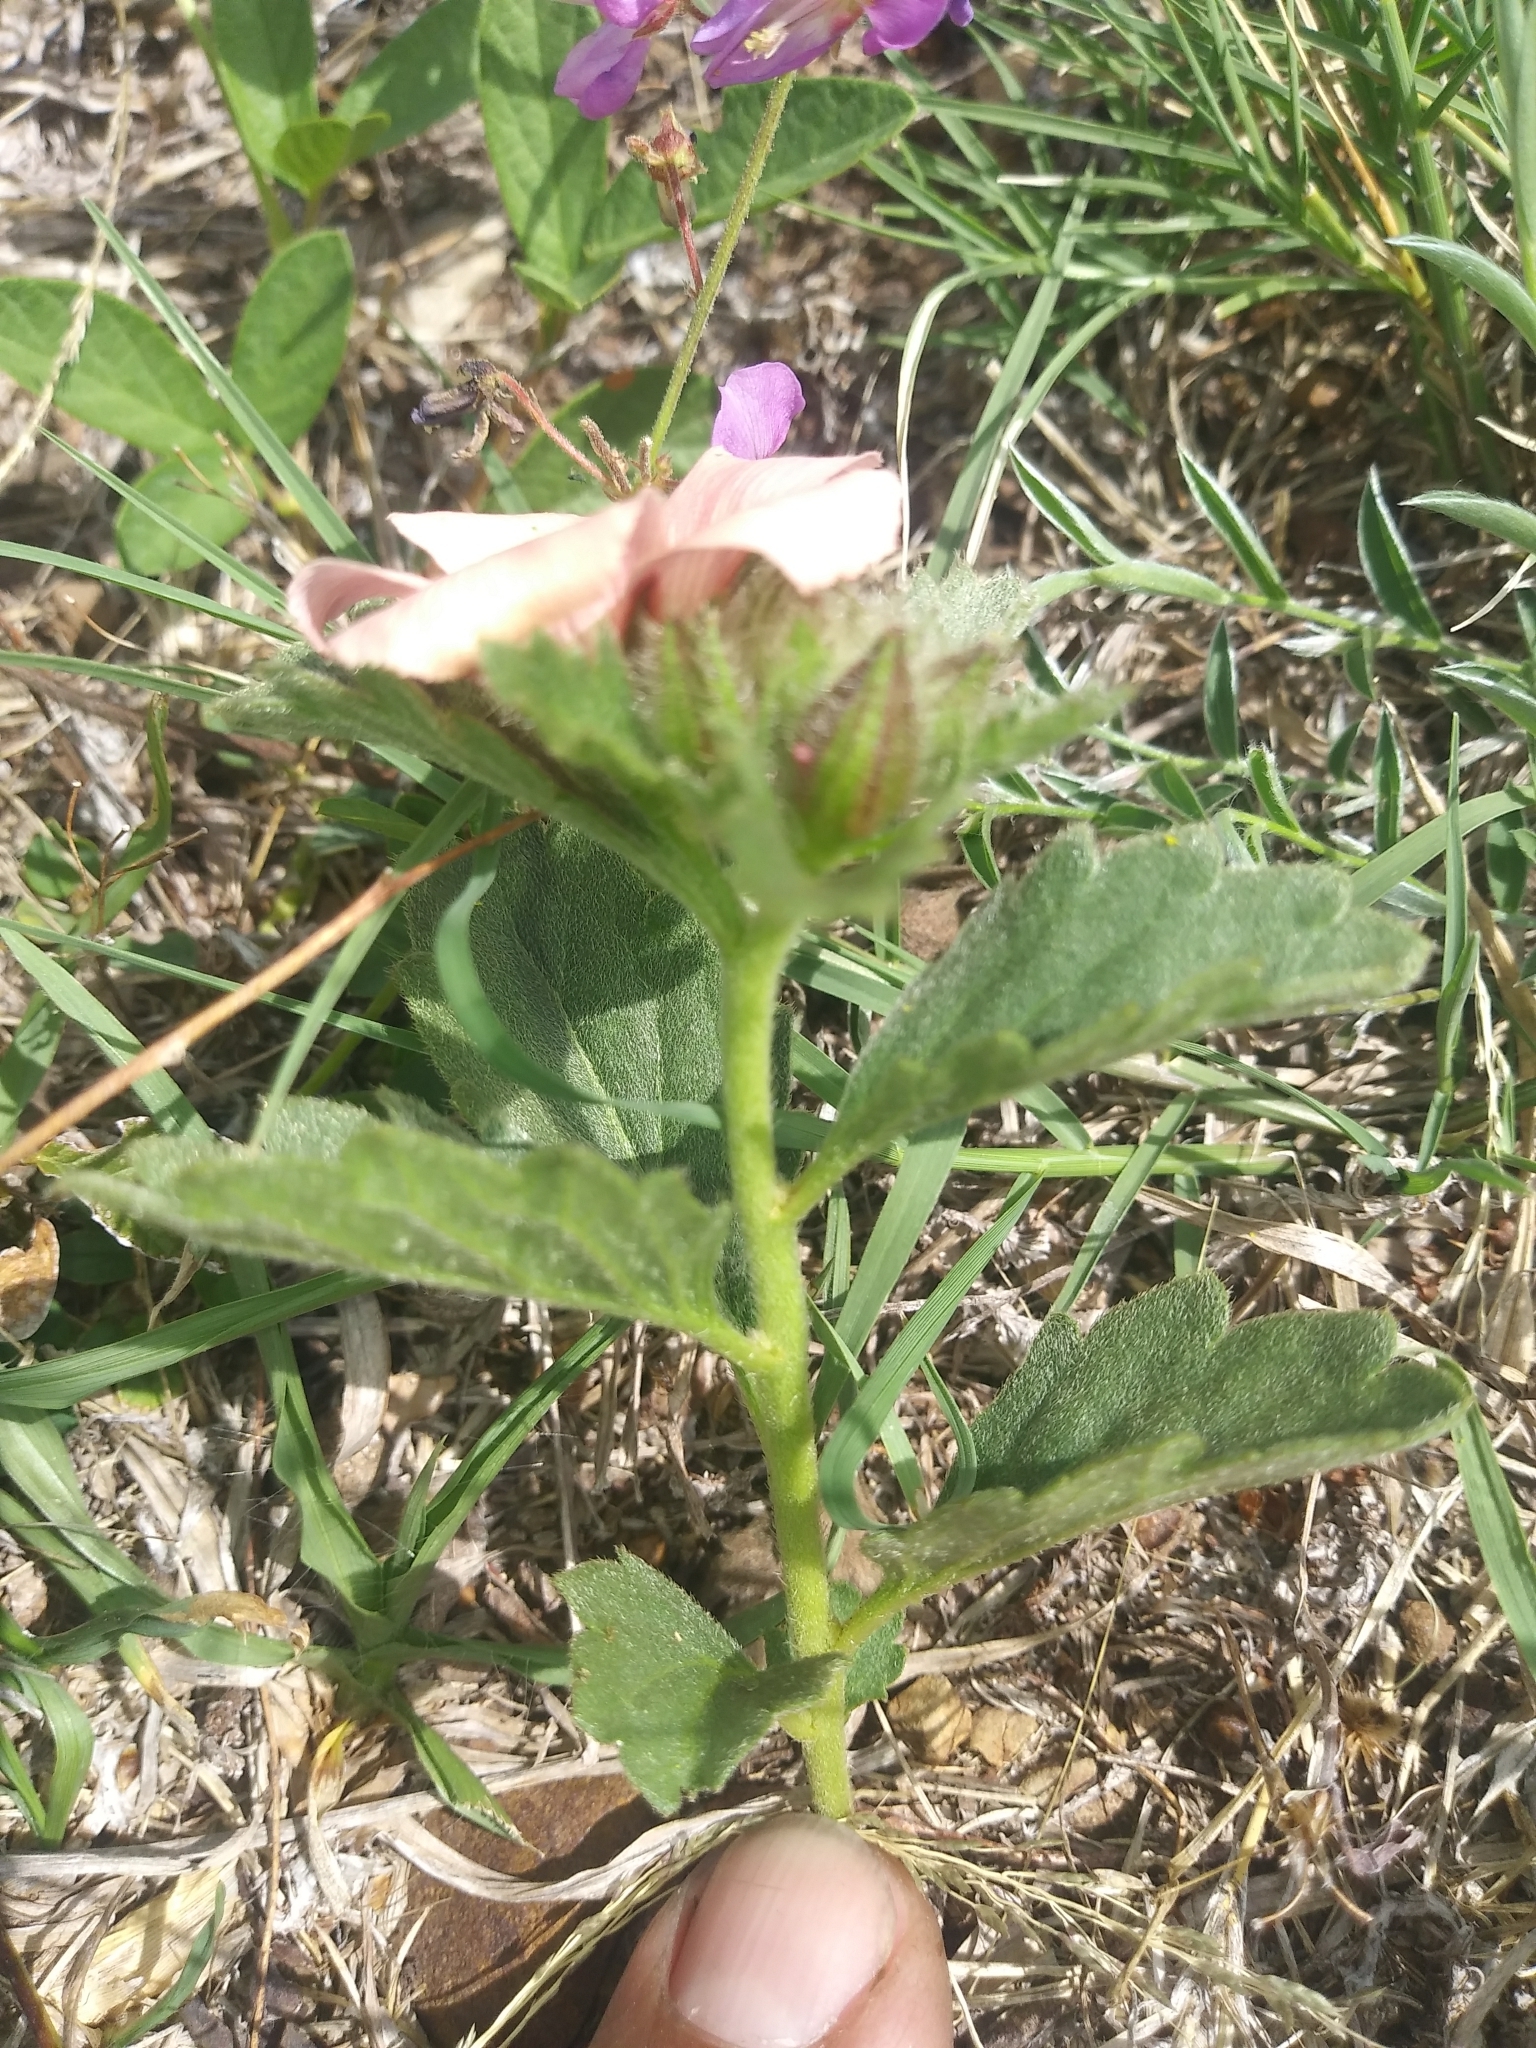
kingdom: Plantae
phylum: Tracheophyta
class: Magnoliopsida
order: Malpighiales
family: Turneraceae
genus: Turnera
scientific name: Turnera sidoides
